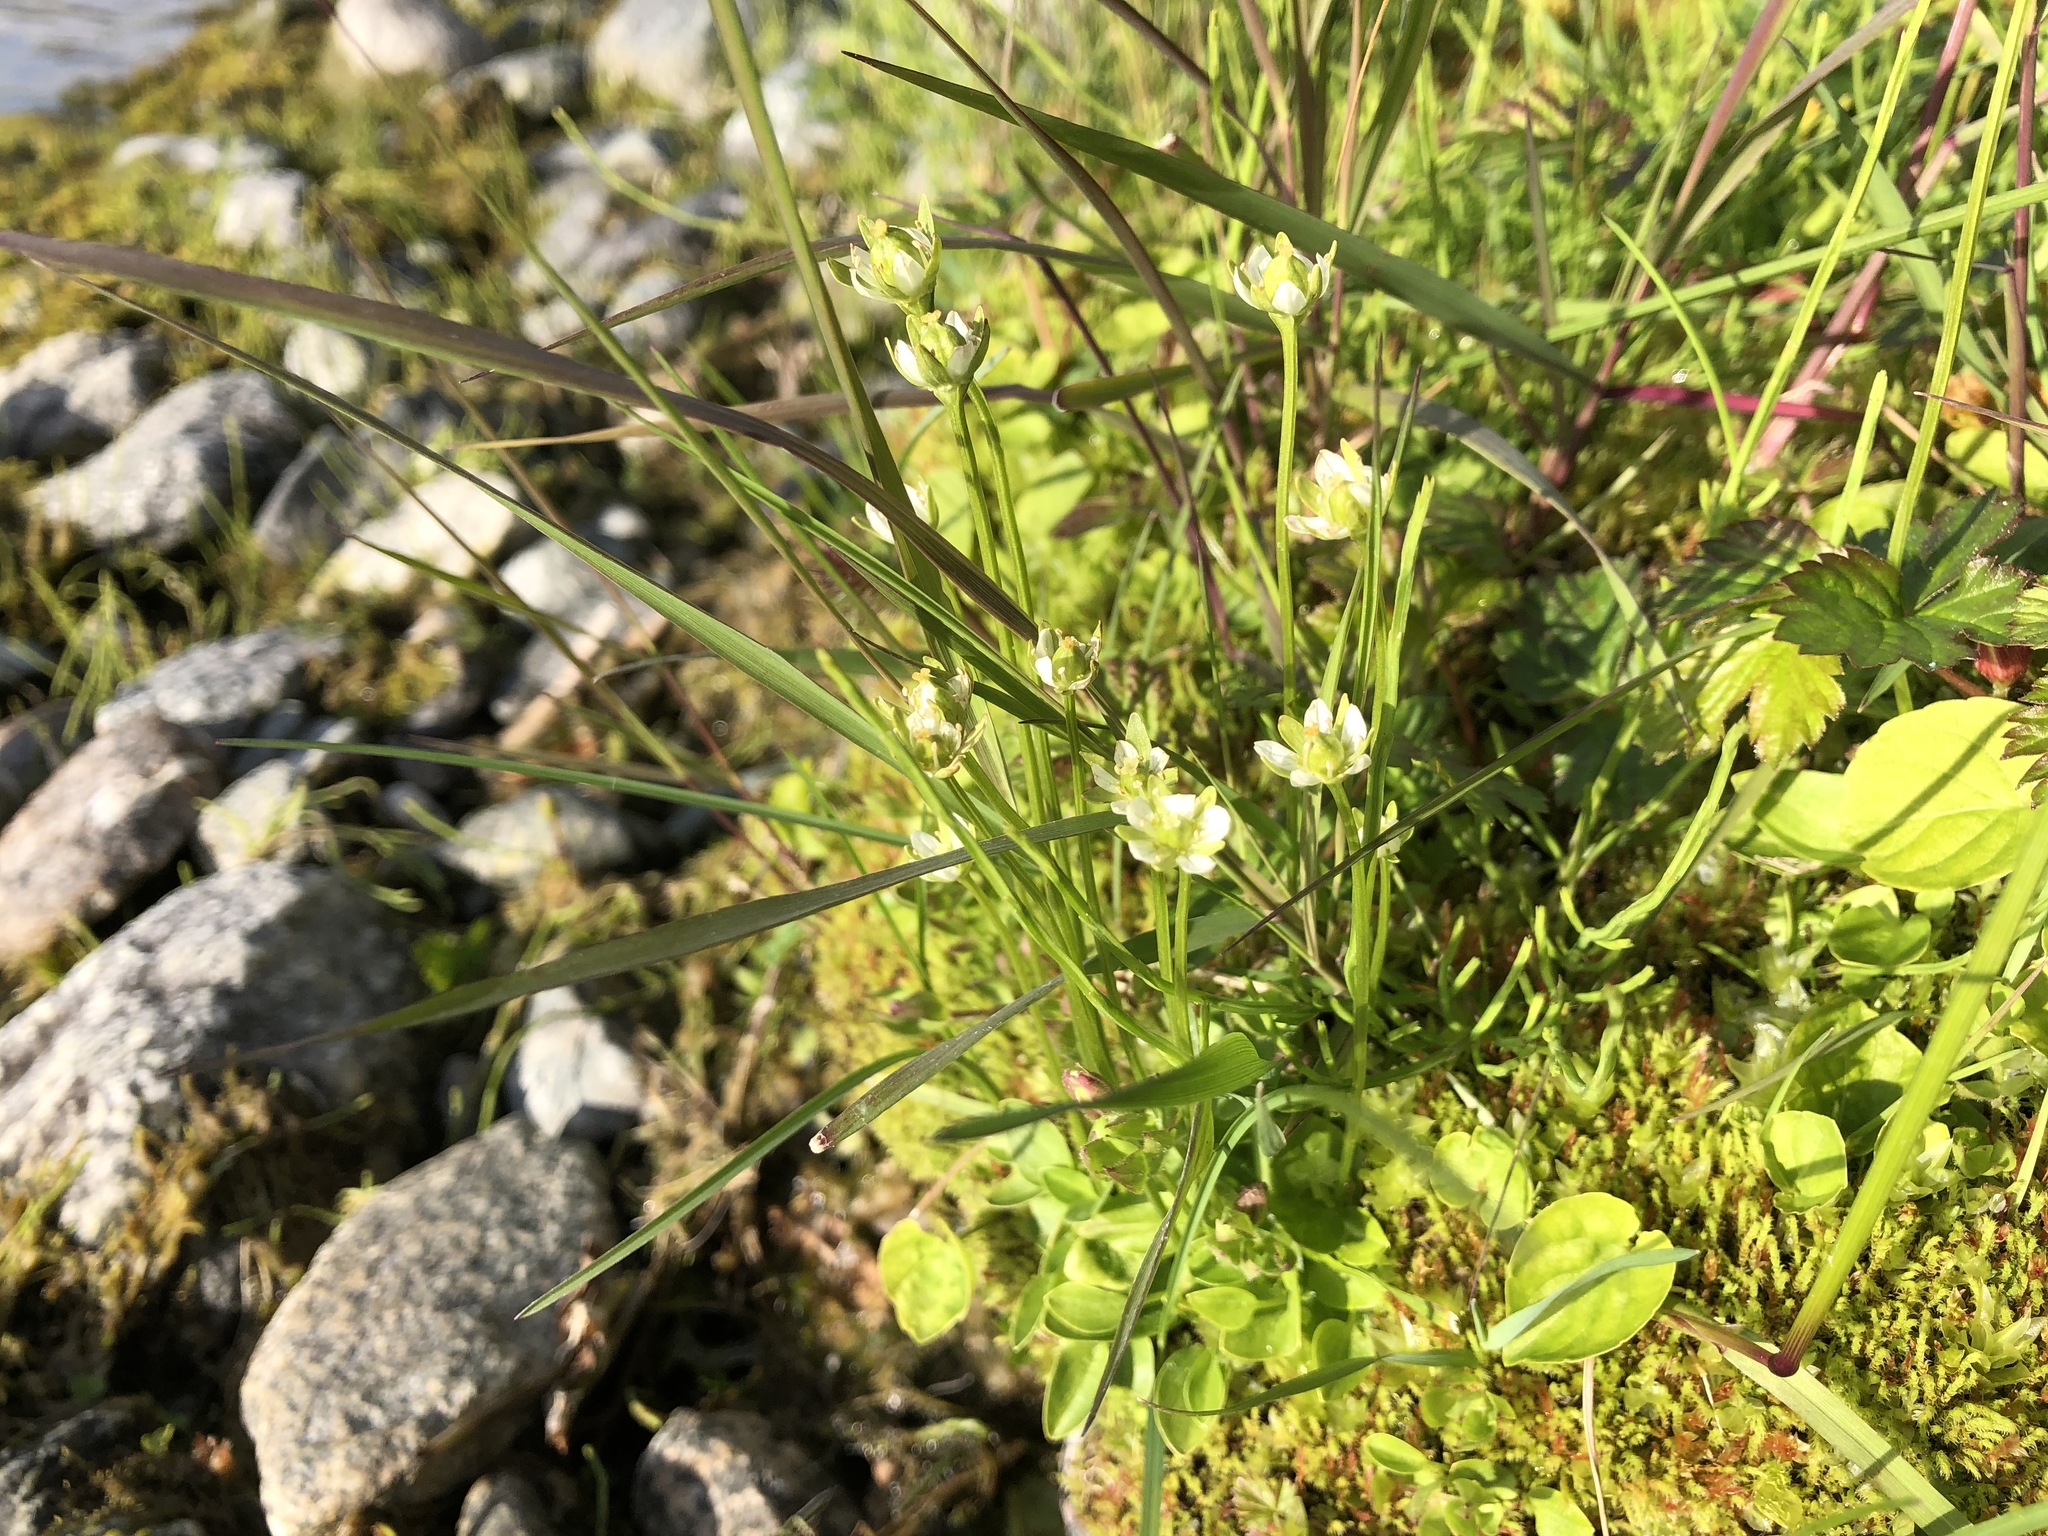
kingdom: Plantae
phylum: Tracheophyta
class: Magnoliopsida
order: Celastrales
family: Parnassiaceae
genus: Parnassia
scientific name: Parnassia kotzebuei
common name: Kotzebue's grass-of-parnassus
